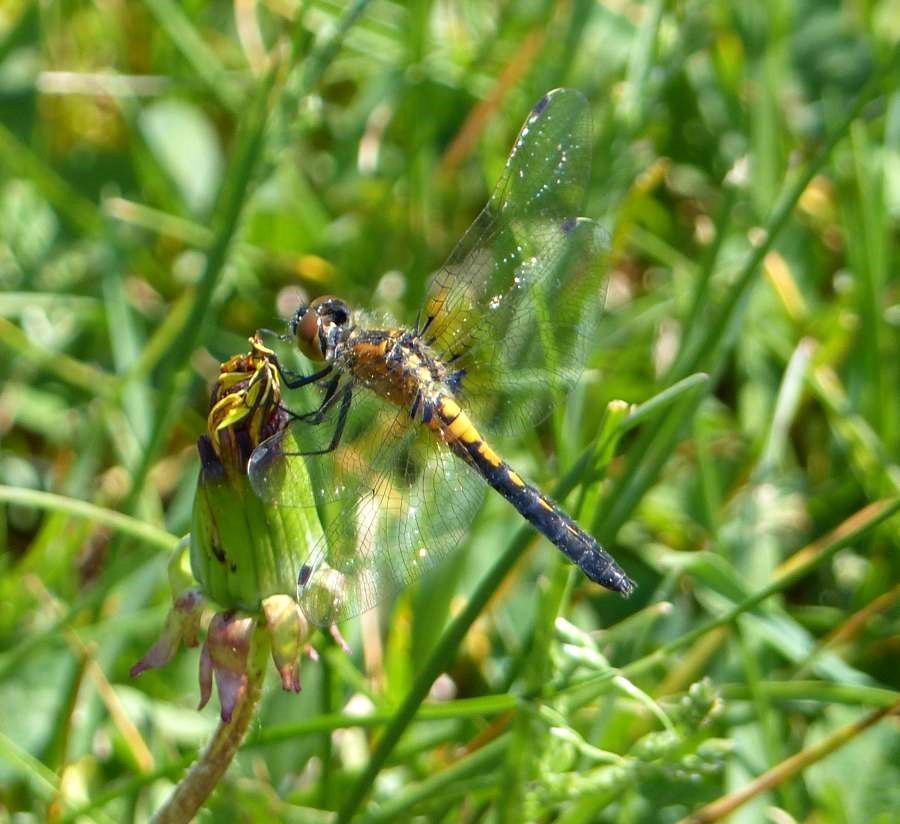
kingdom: Animalia
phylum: Arthropoda
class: Insecta
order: Odonata
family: Libellulidae
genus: Leucorrhinia
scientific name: Leucorrhinia frigida
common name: Frosted whiteface
